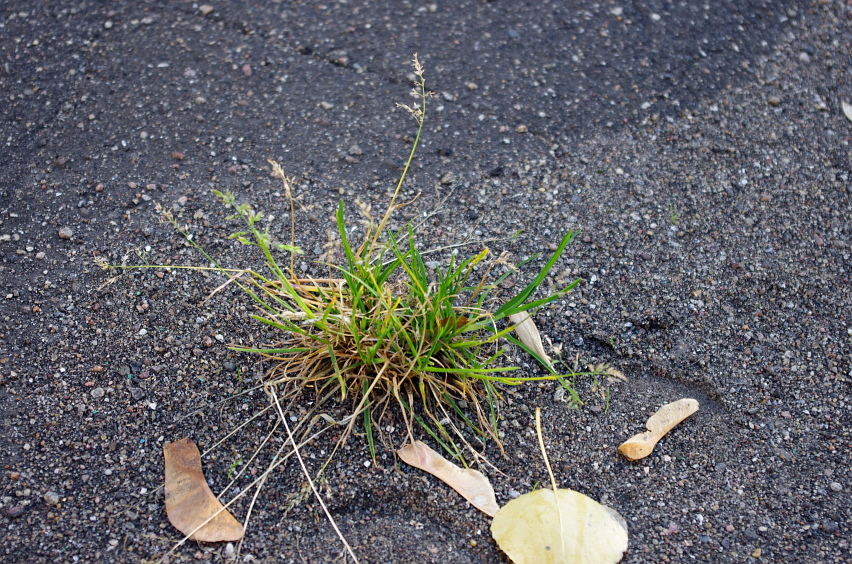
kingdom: Plantae
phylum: Tracheophyta
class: Liliopsida
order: Poales
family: Poaceae
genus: Poa
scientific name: Poa annua
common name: Annual bluegrass
